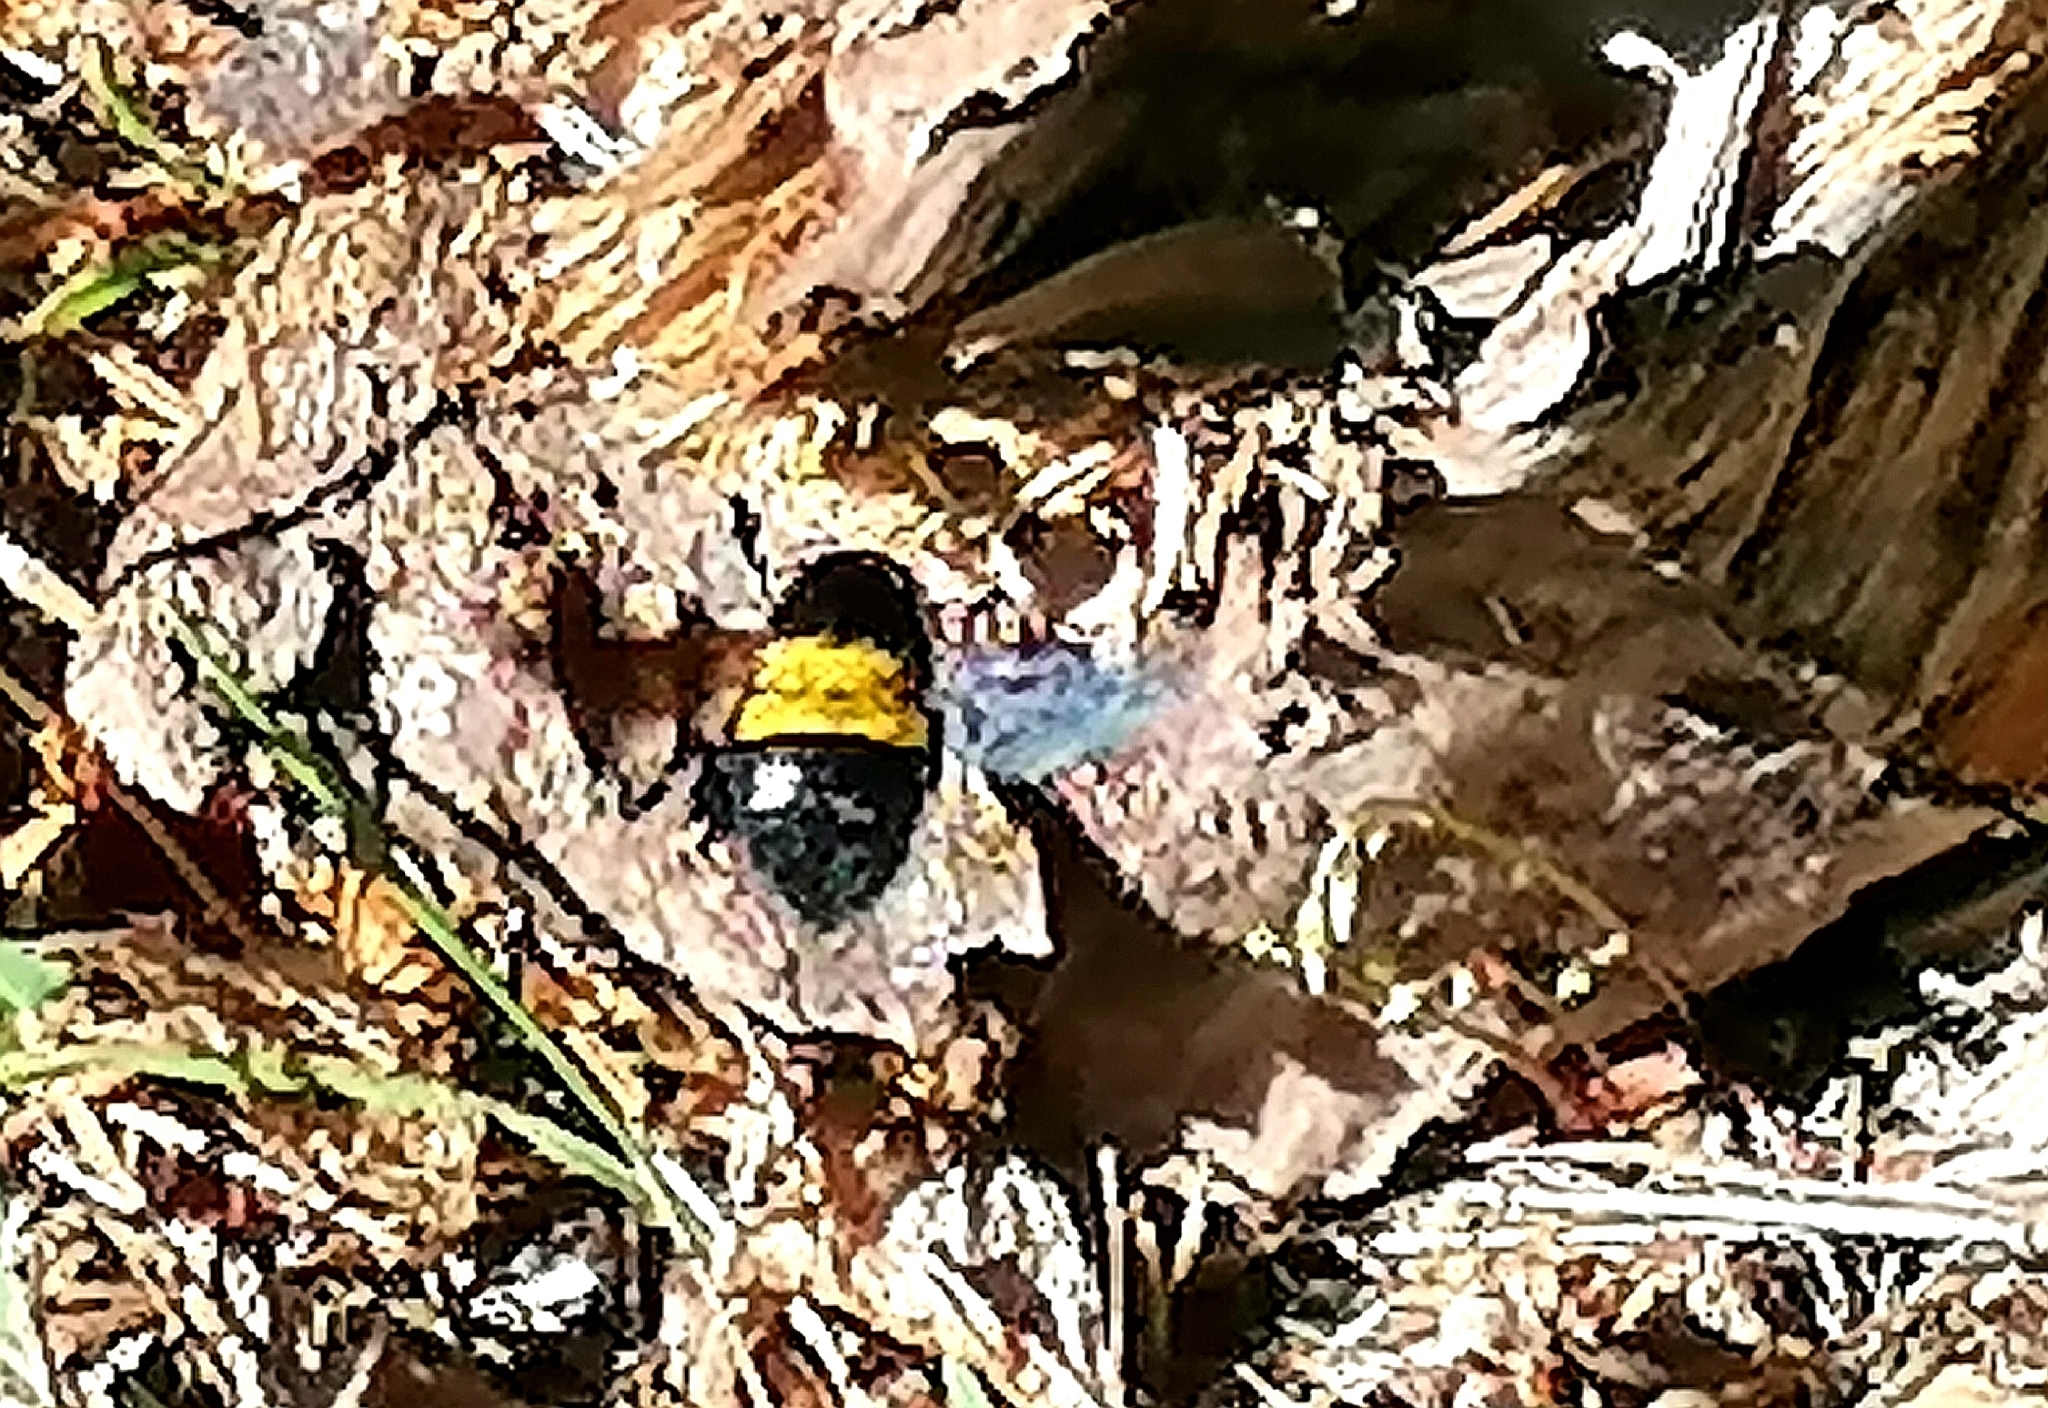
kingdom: Animalia
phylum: Arthropoda
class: Insecta
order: Hymenoptera
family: Apidae
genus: Xylocopa
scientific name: Xylocopa caffra
